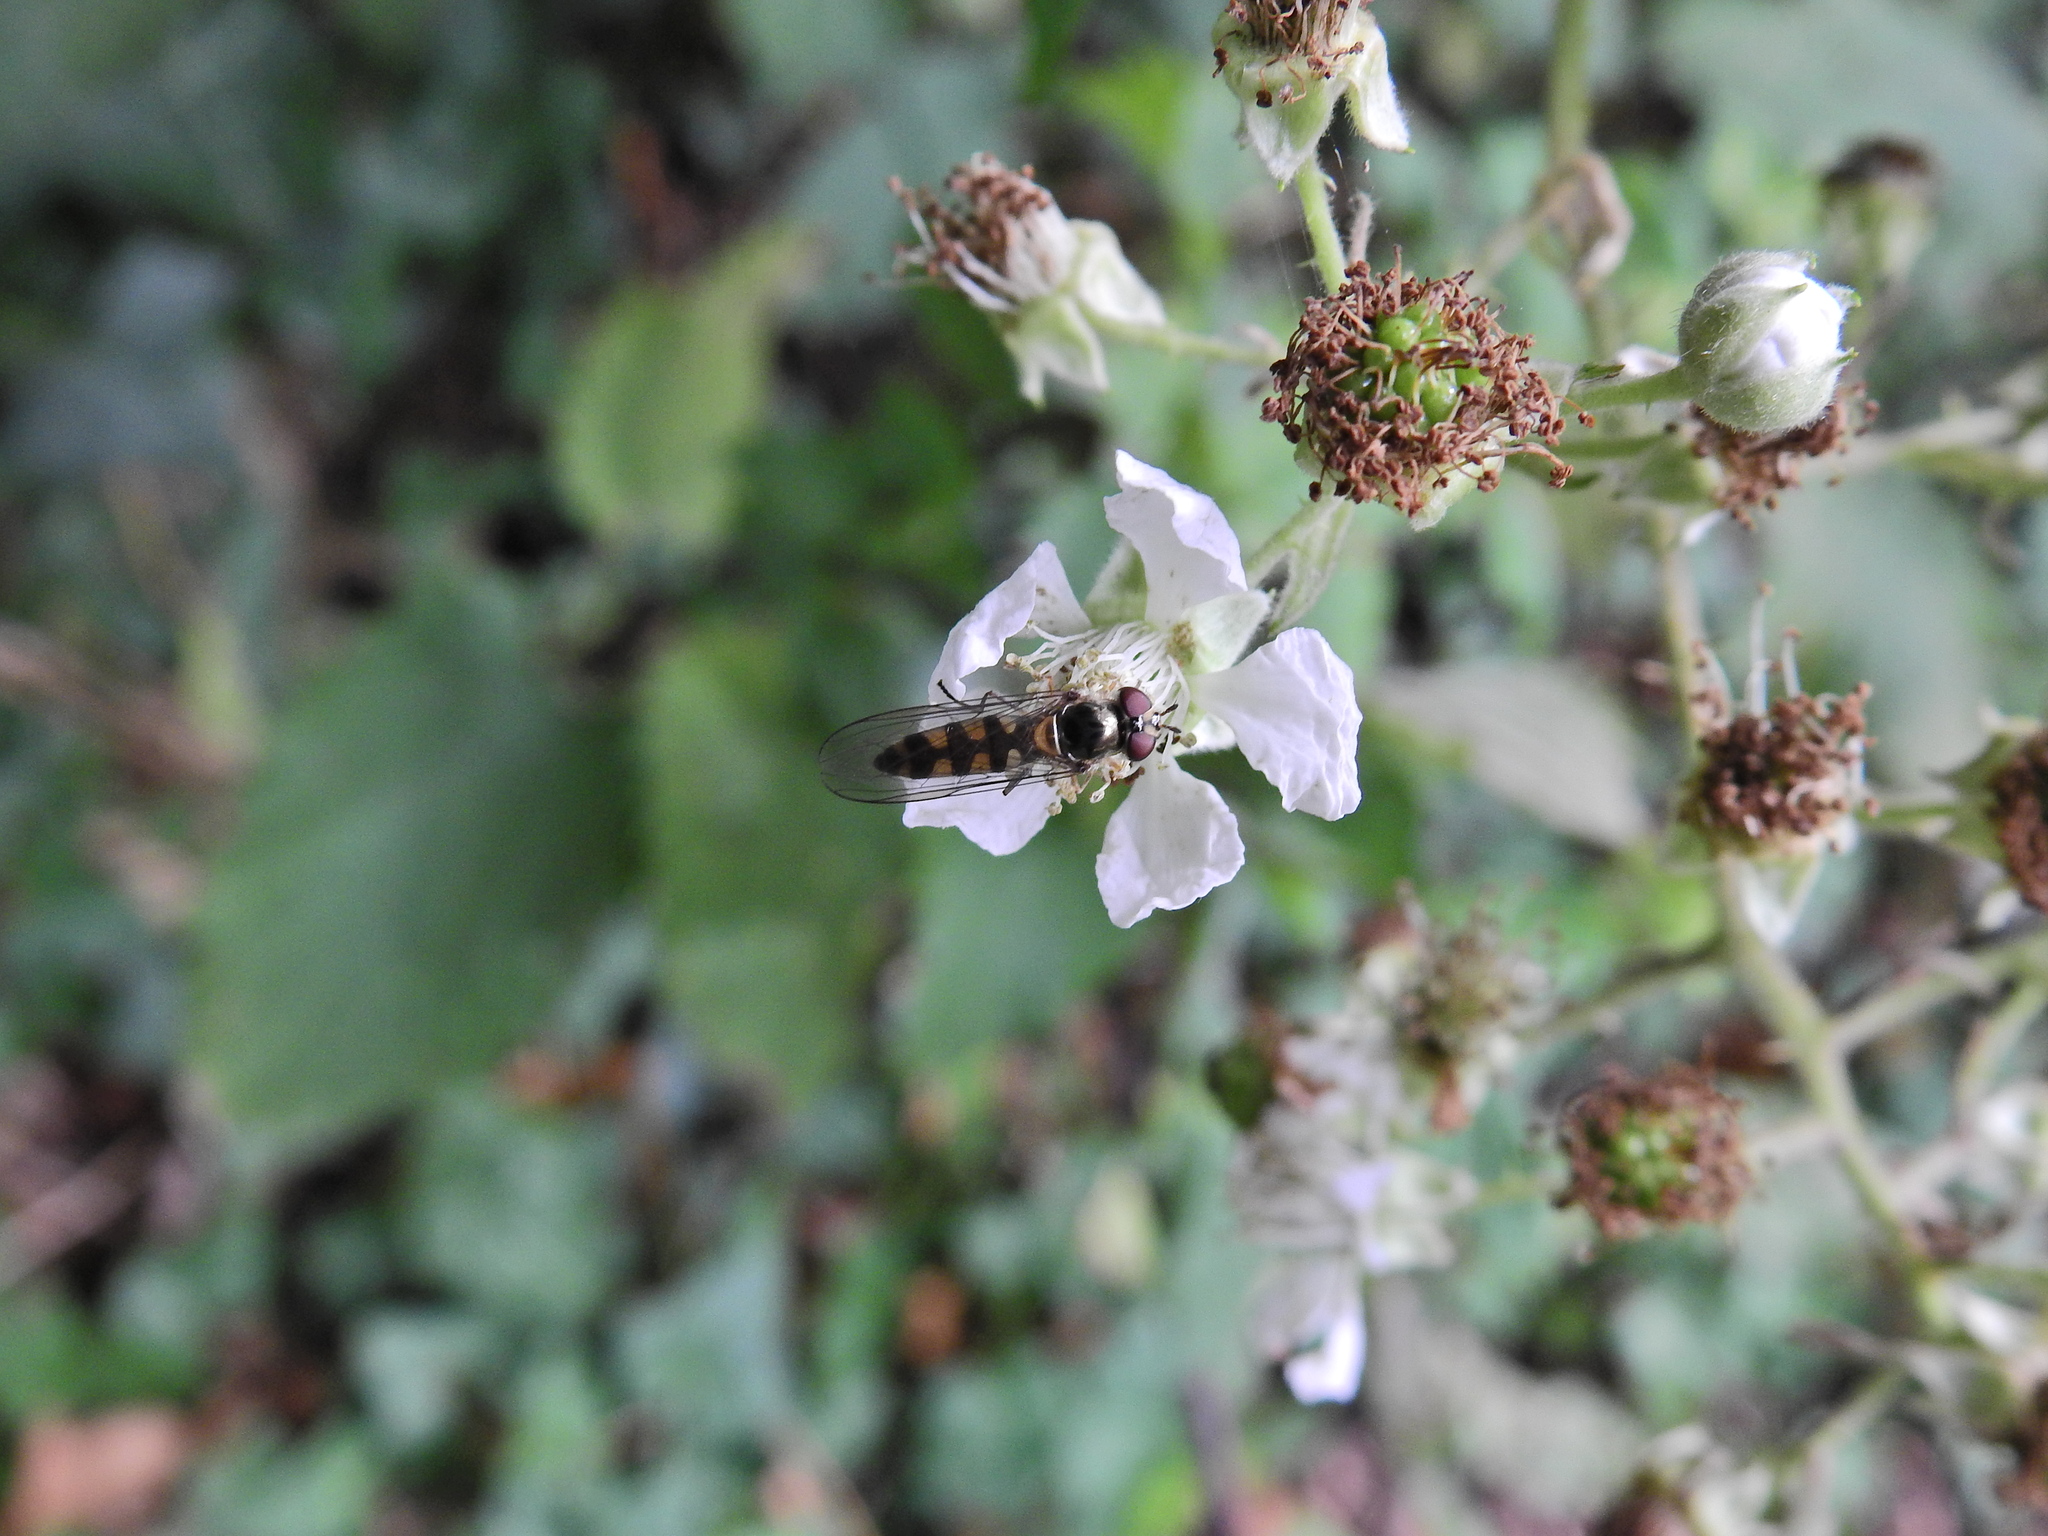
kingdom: Animalia
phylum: Arthropoda
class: Insecta
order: Diptera
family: Syrphidae
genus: Meliscaeva
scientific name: Meliscaeva auricollis
